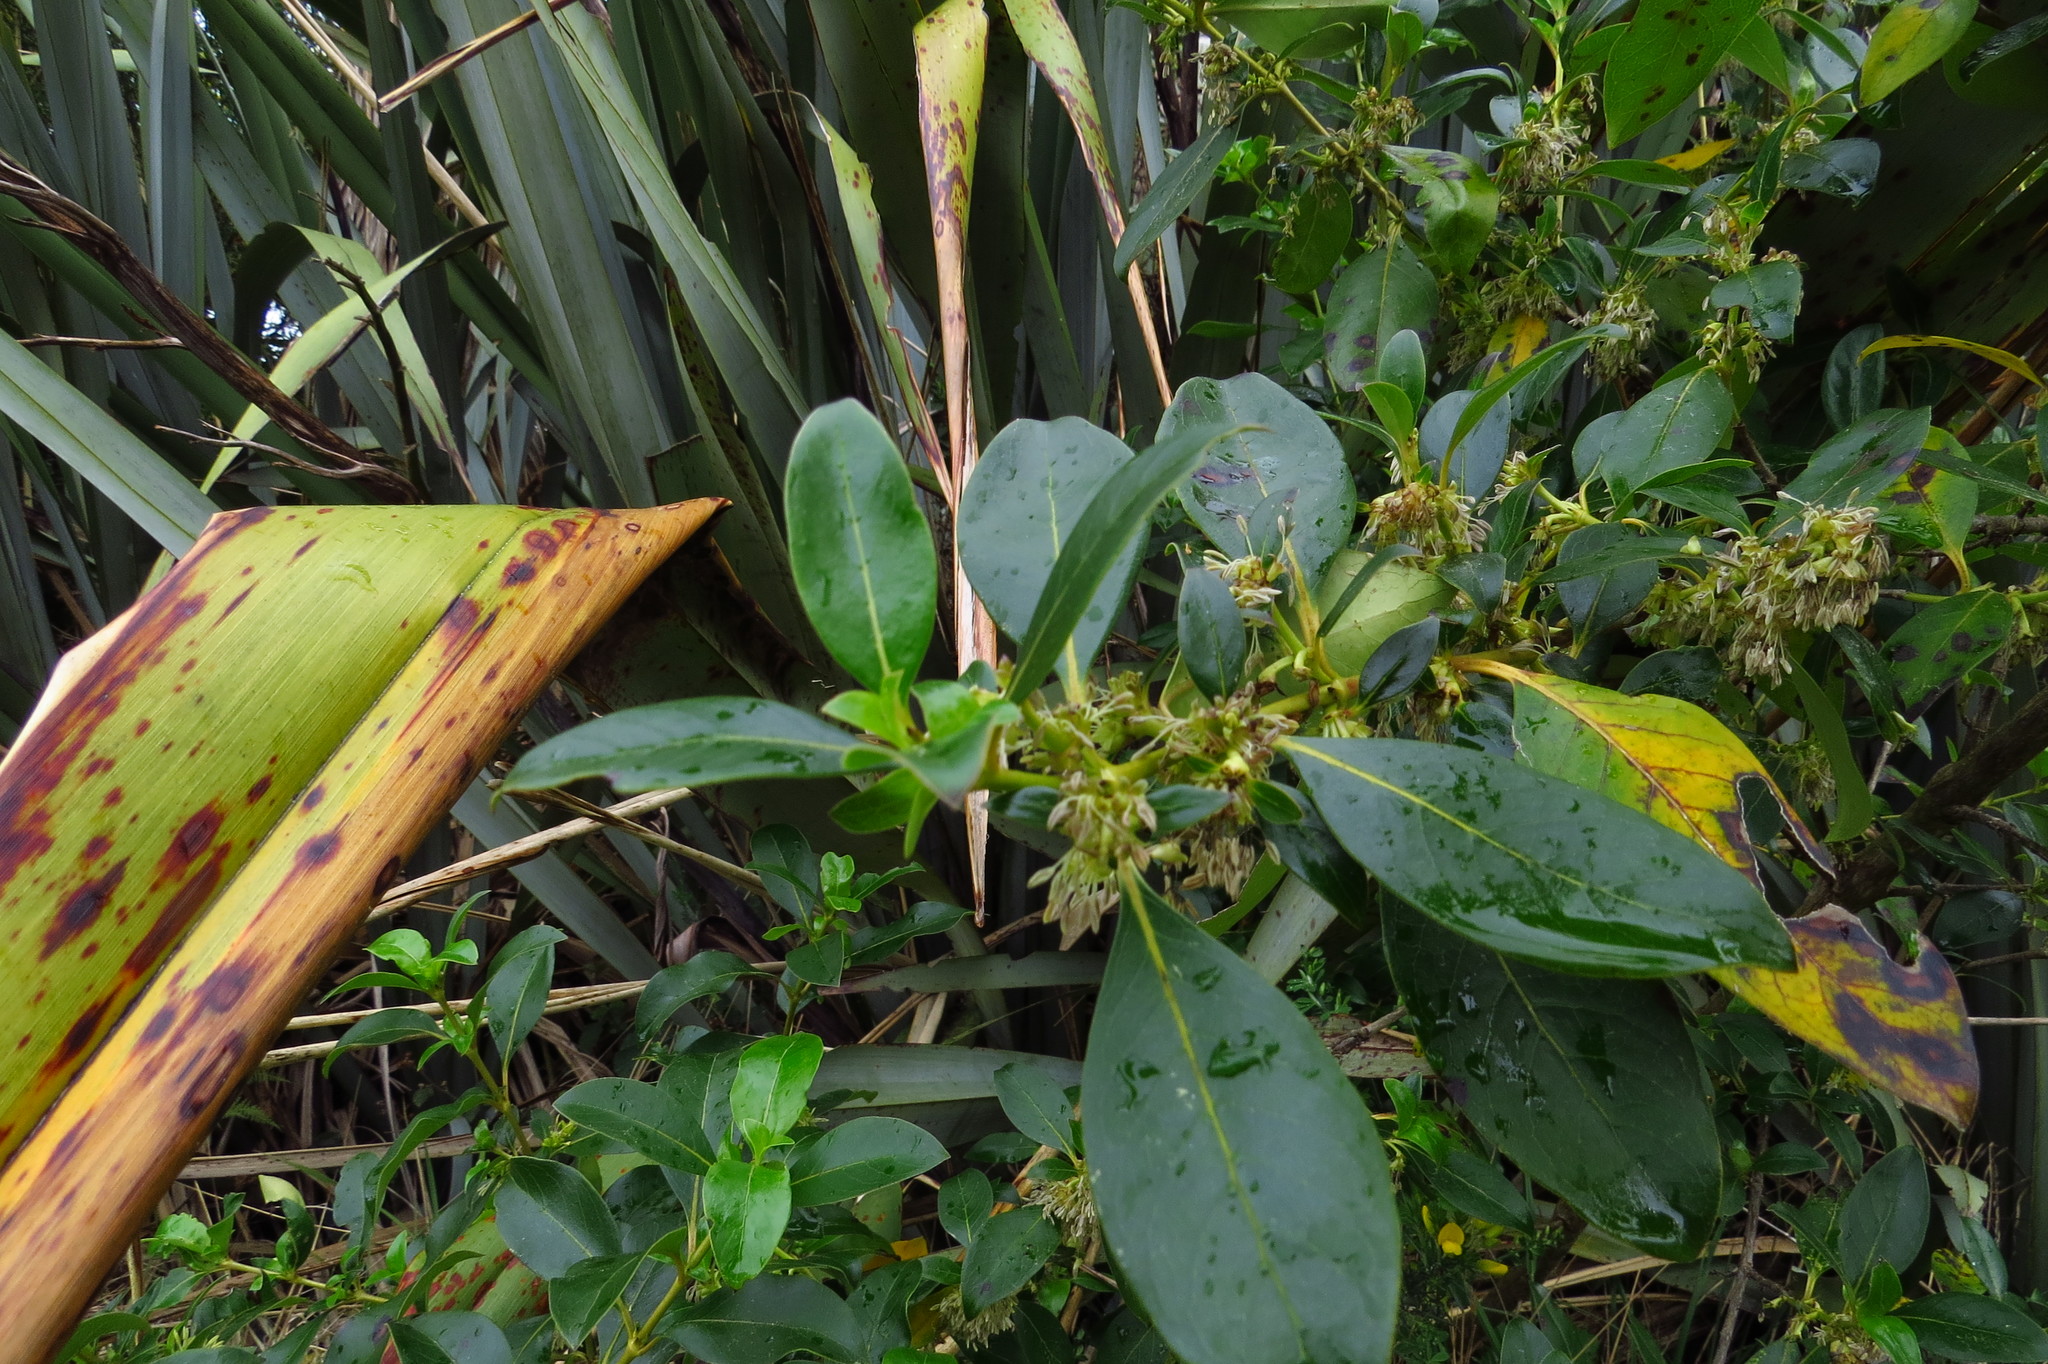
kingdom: Plantae
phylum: Tracheophyta
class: Magnoliopsida
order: Gentianales
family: Rubiaceae
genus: Coprosma
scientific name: Coprosma robusta
